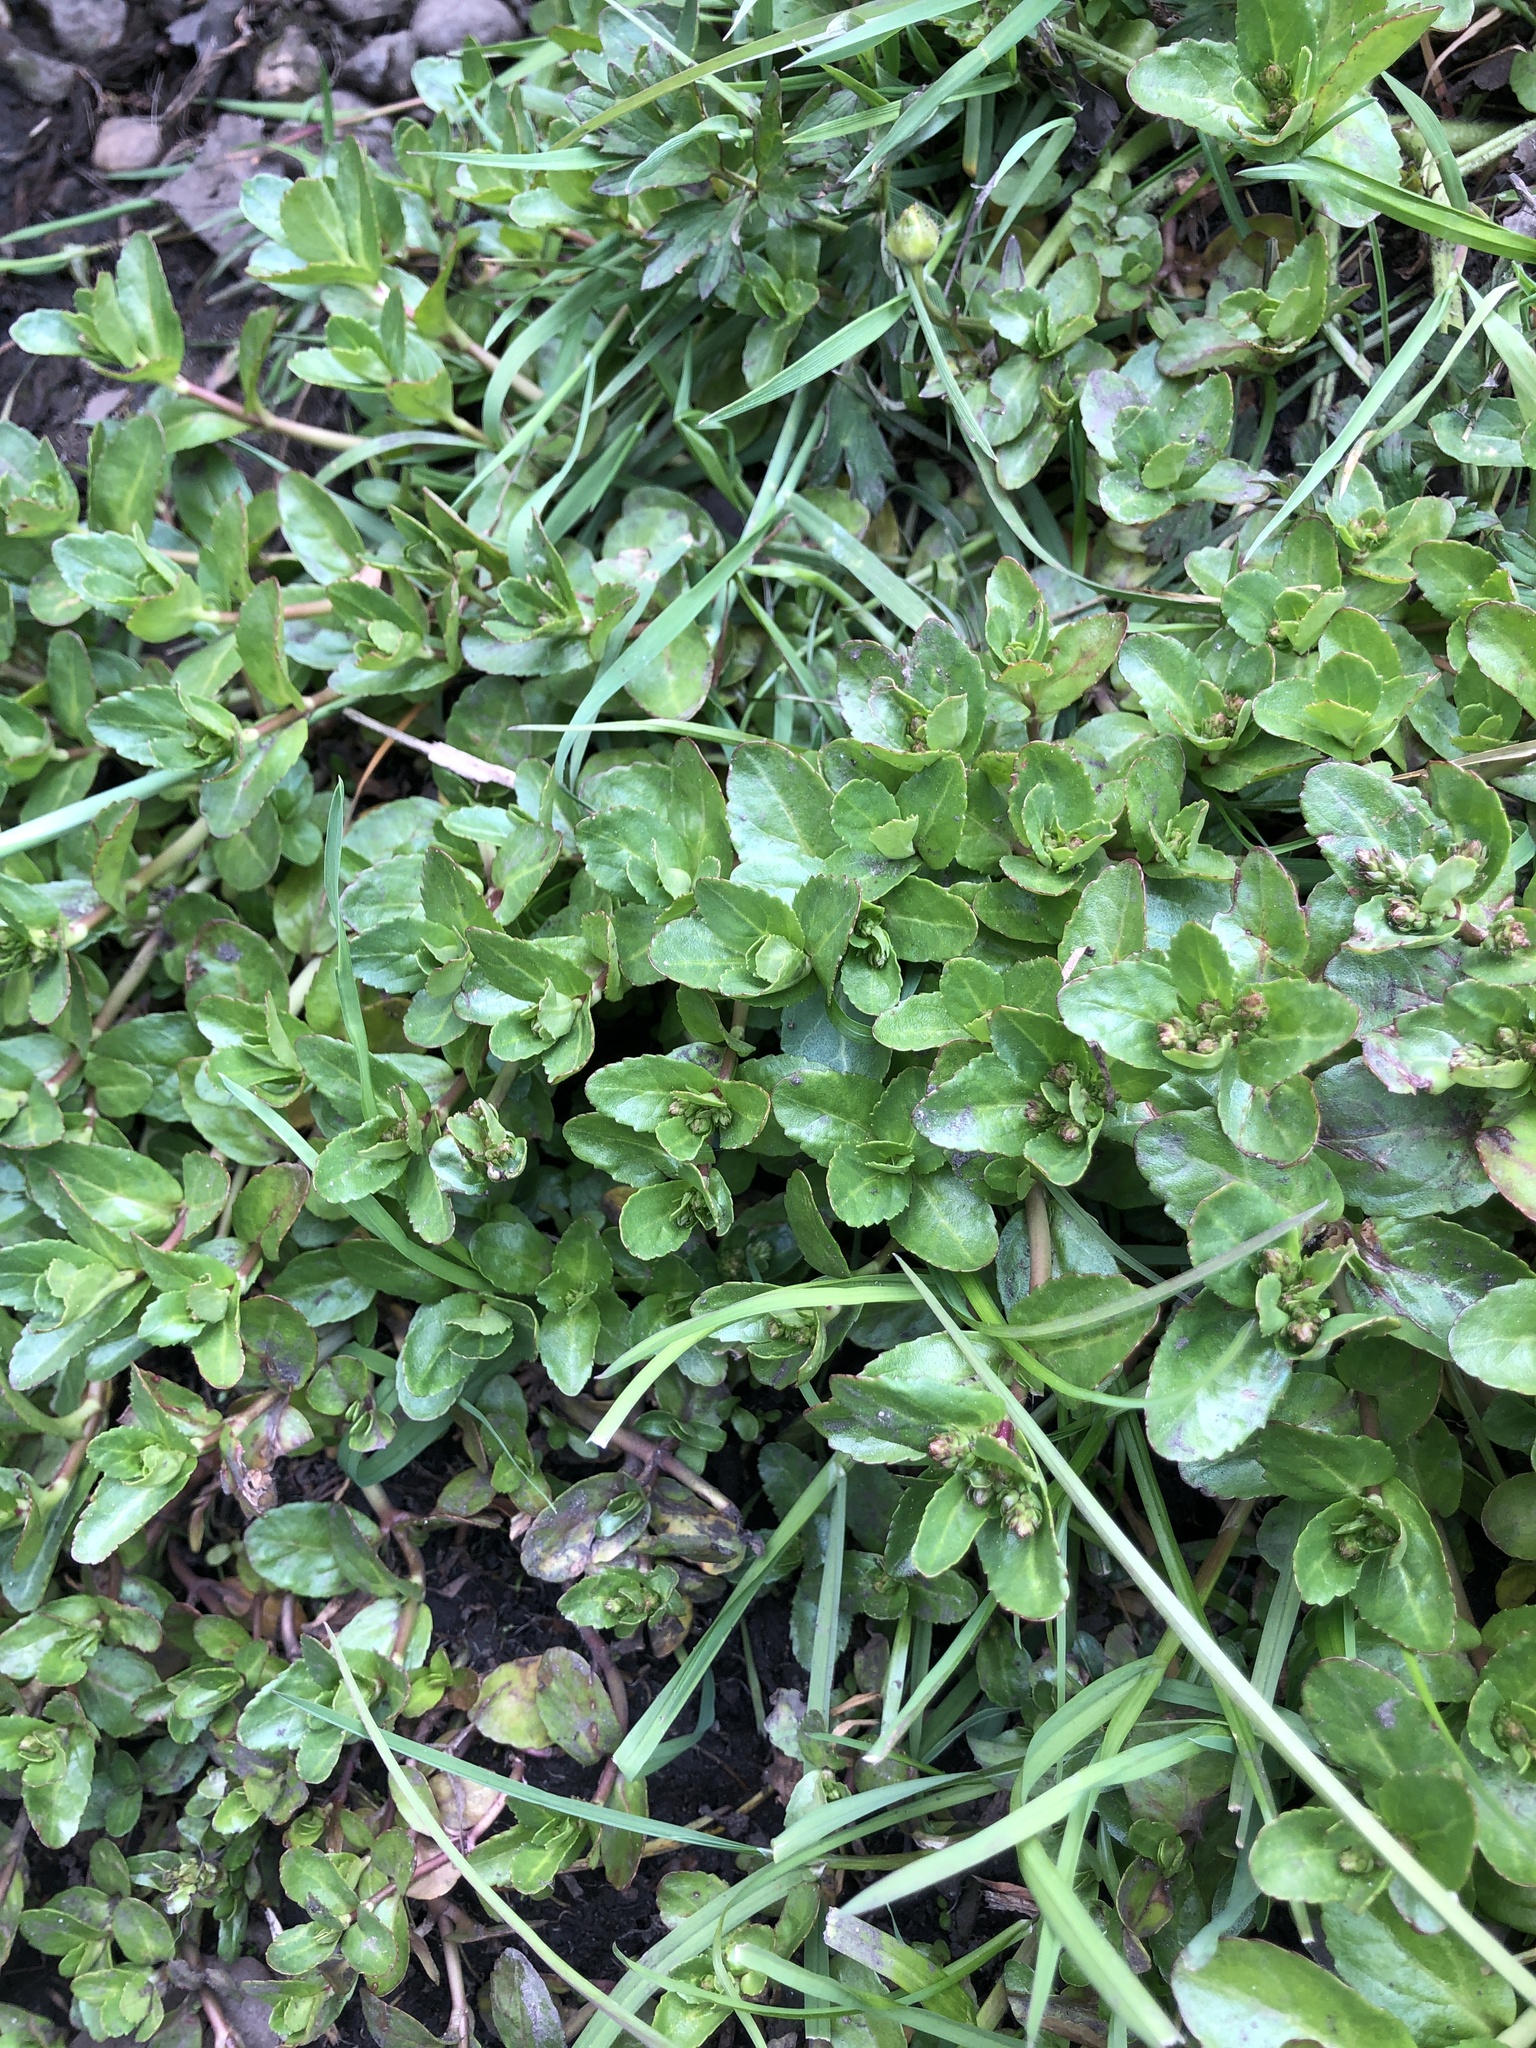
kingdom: Plantae
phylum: Tracheophyta
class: Magnoliopsida
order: Lamiales
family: Plantaginaceae
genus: Veronica
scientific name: Veronica beccabunga
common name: Brooklime
